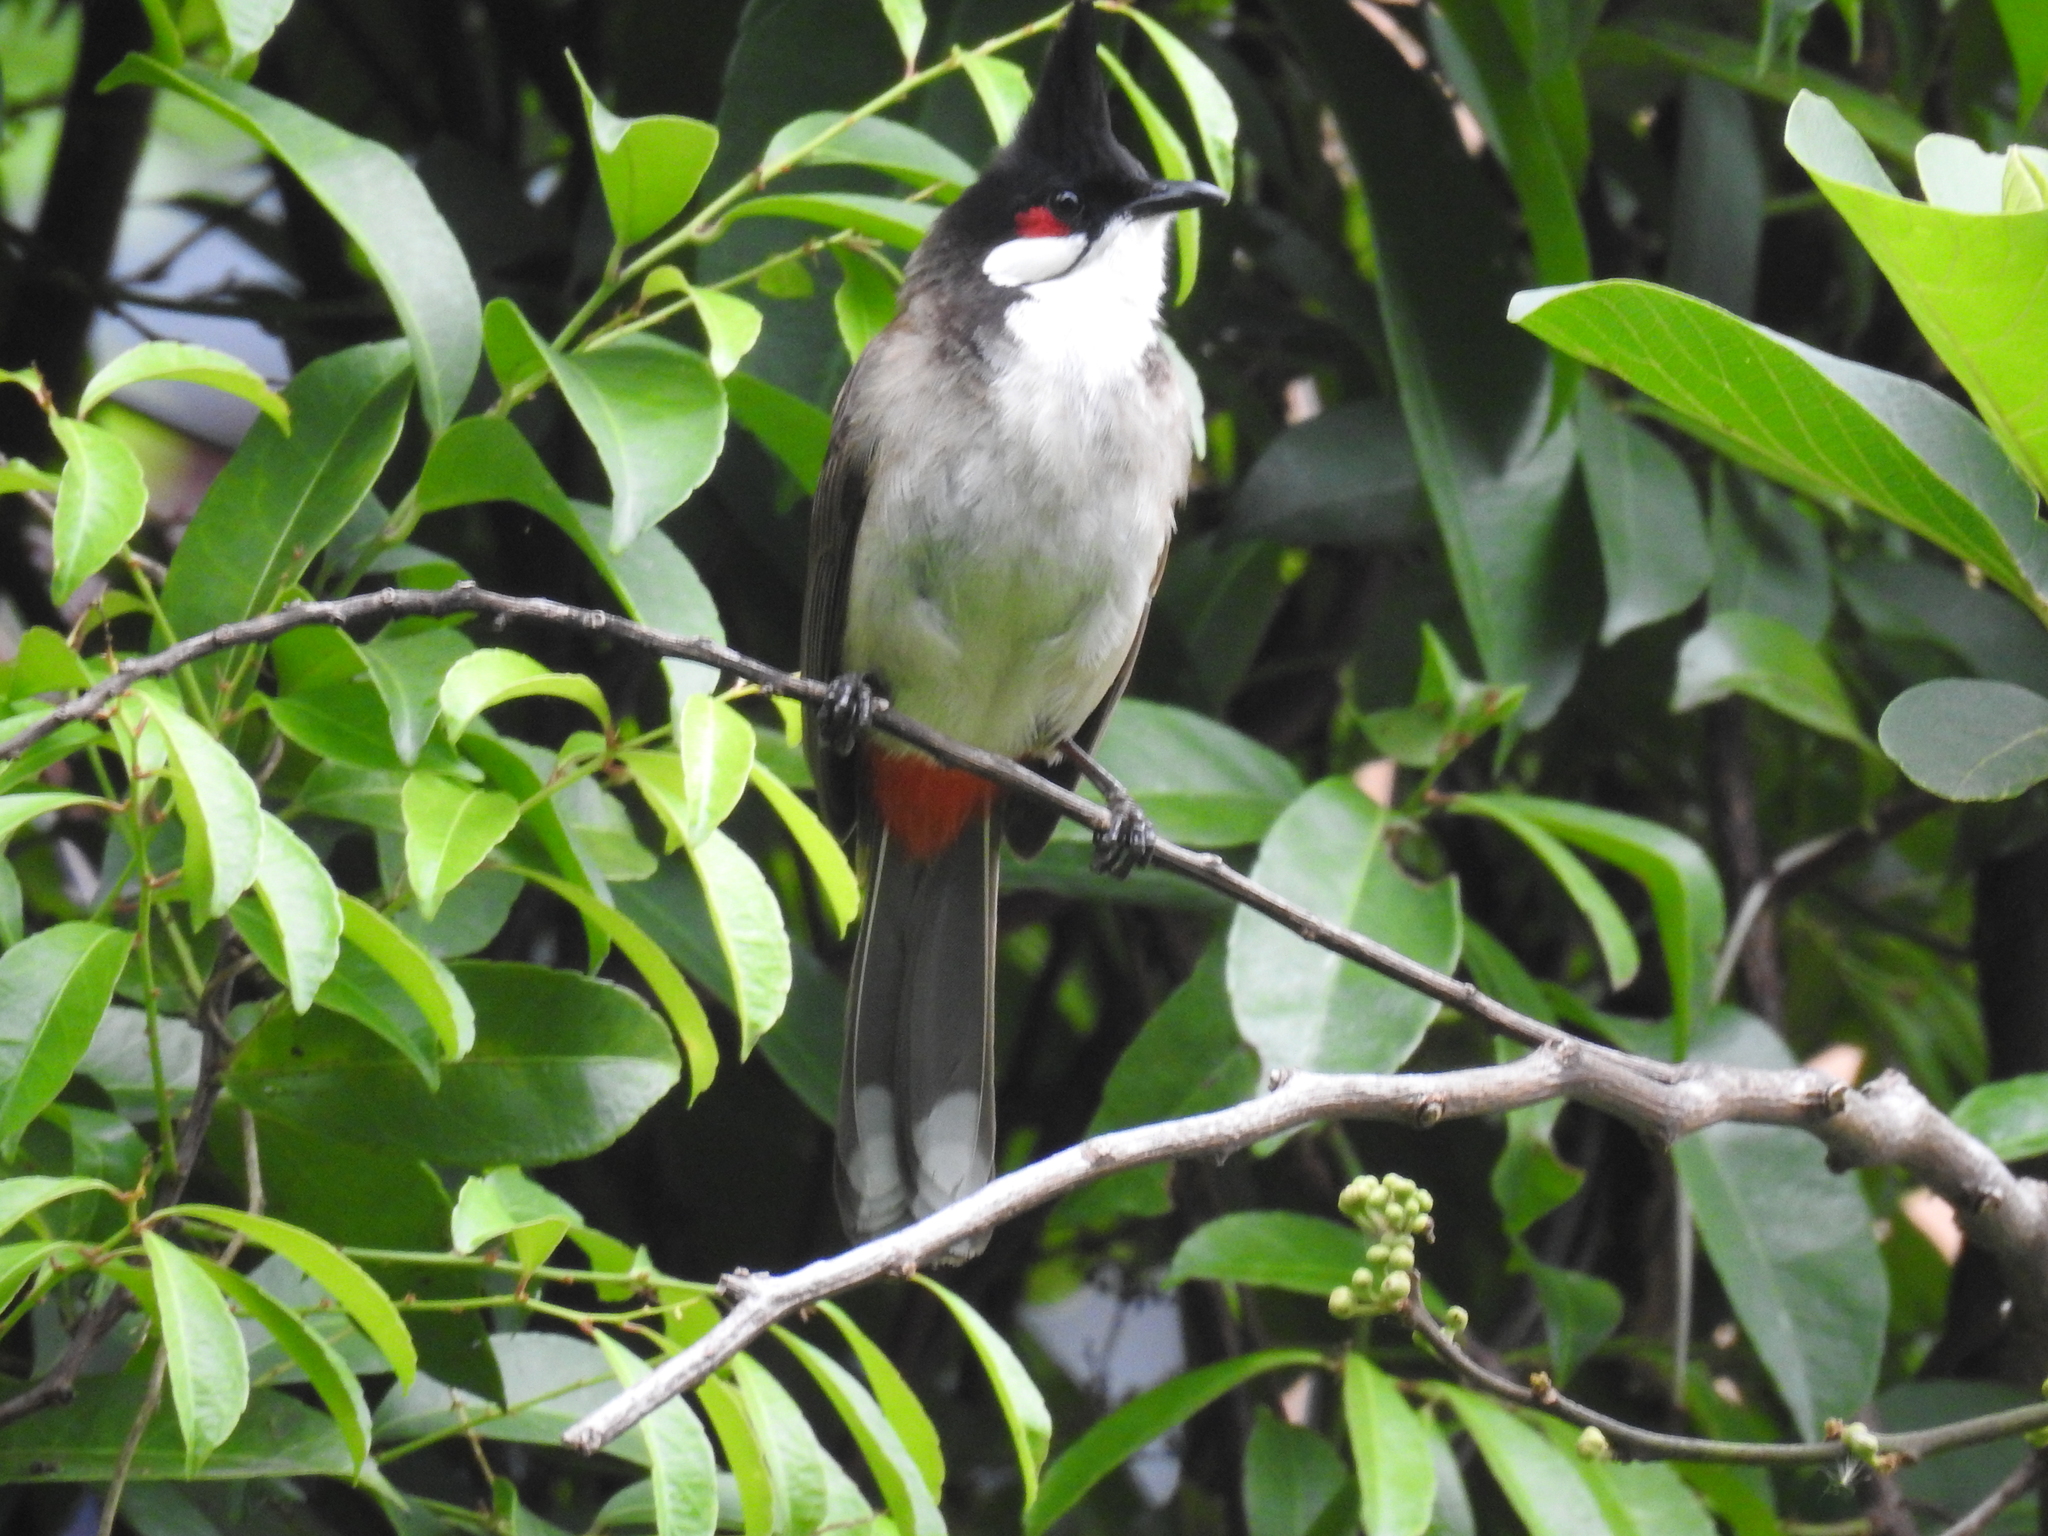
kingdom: Animalia
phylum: Chordata
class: Aves
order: Passeriformes
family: Pycnonotidae
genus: Pycnonotus
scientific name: Pycnonotus jocosus
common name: Red-whiskered bulbul
